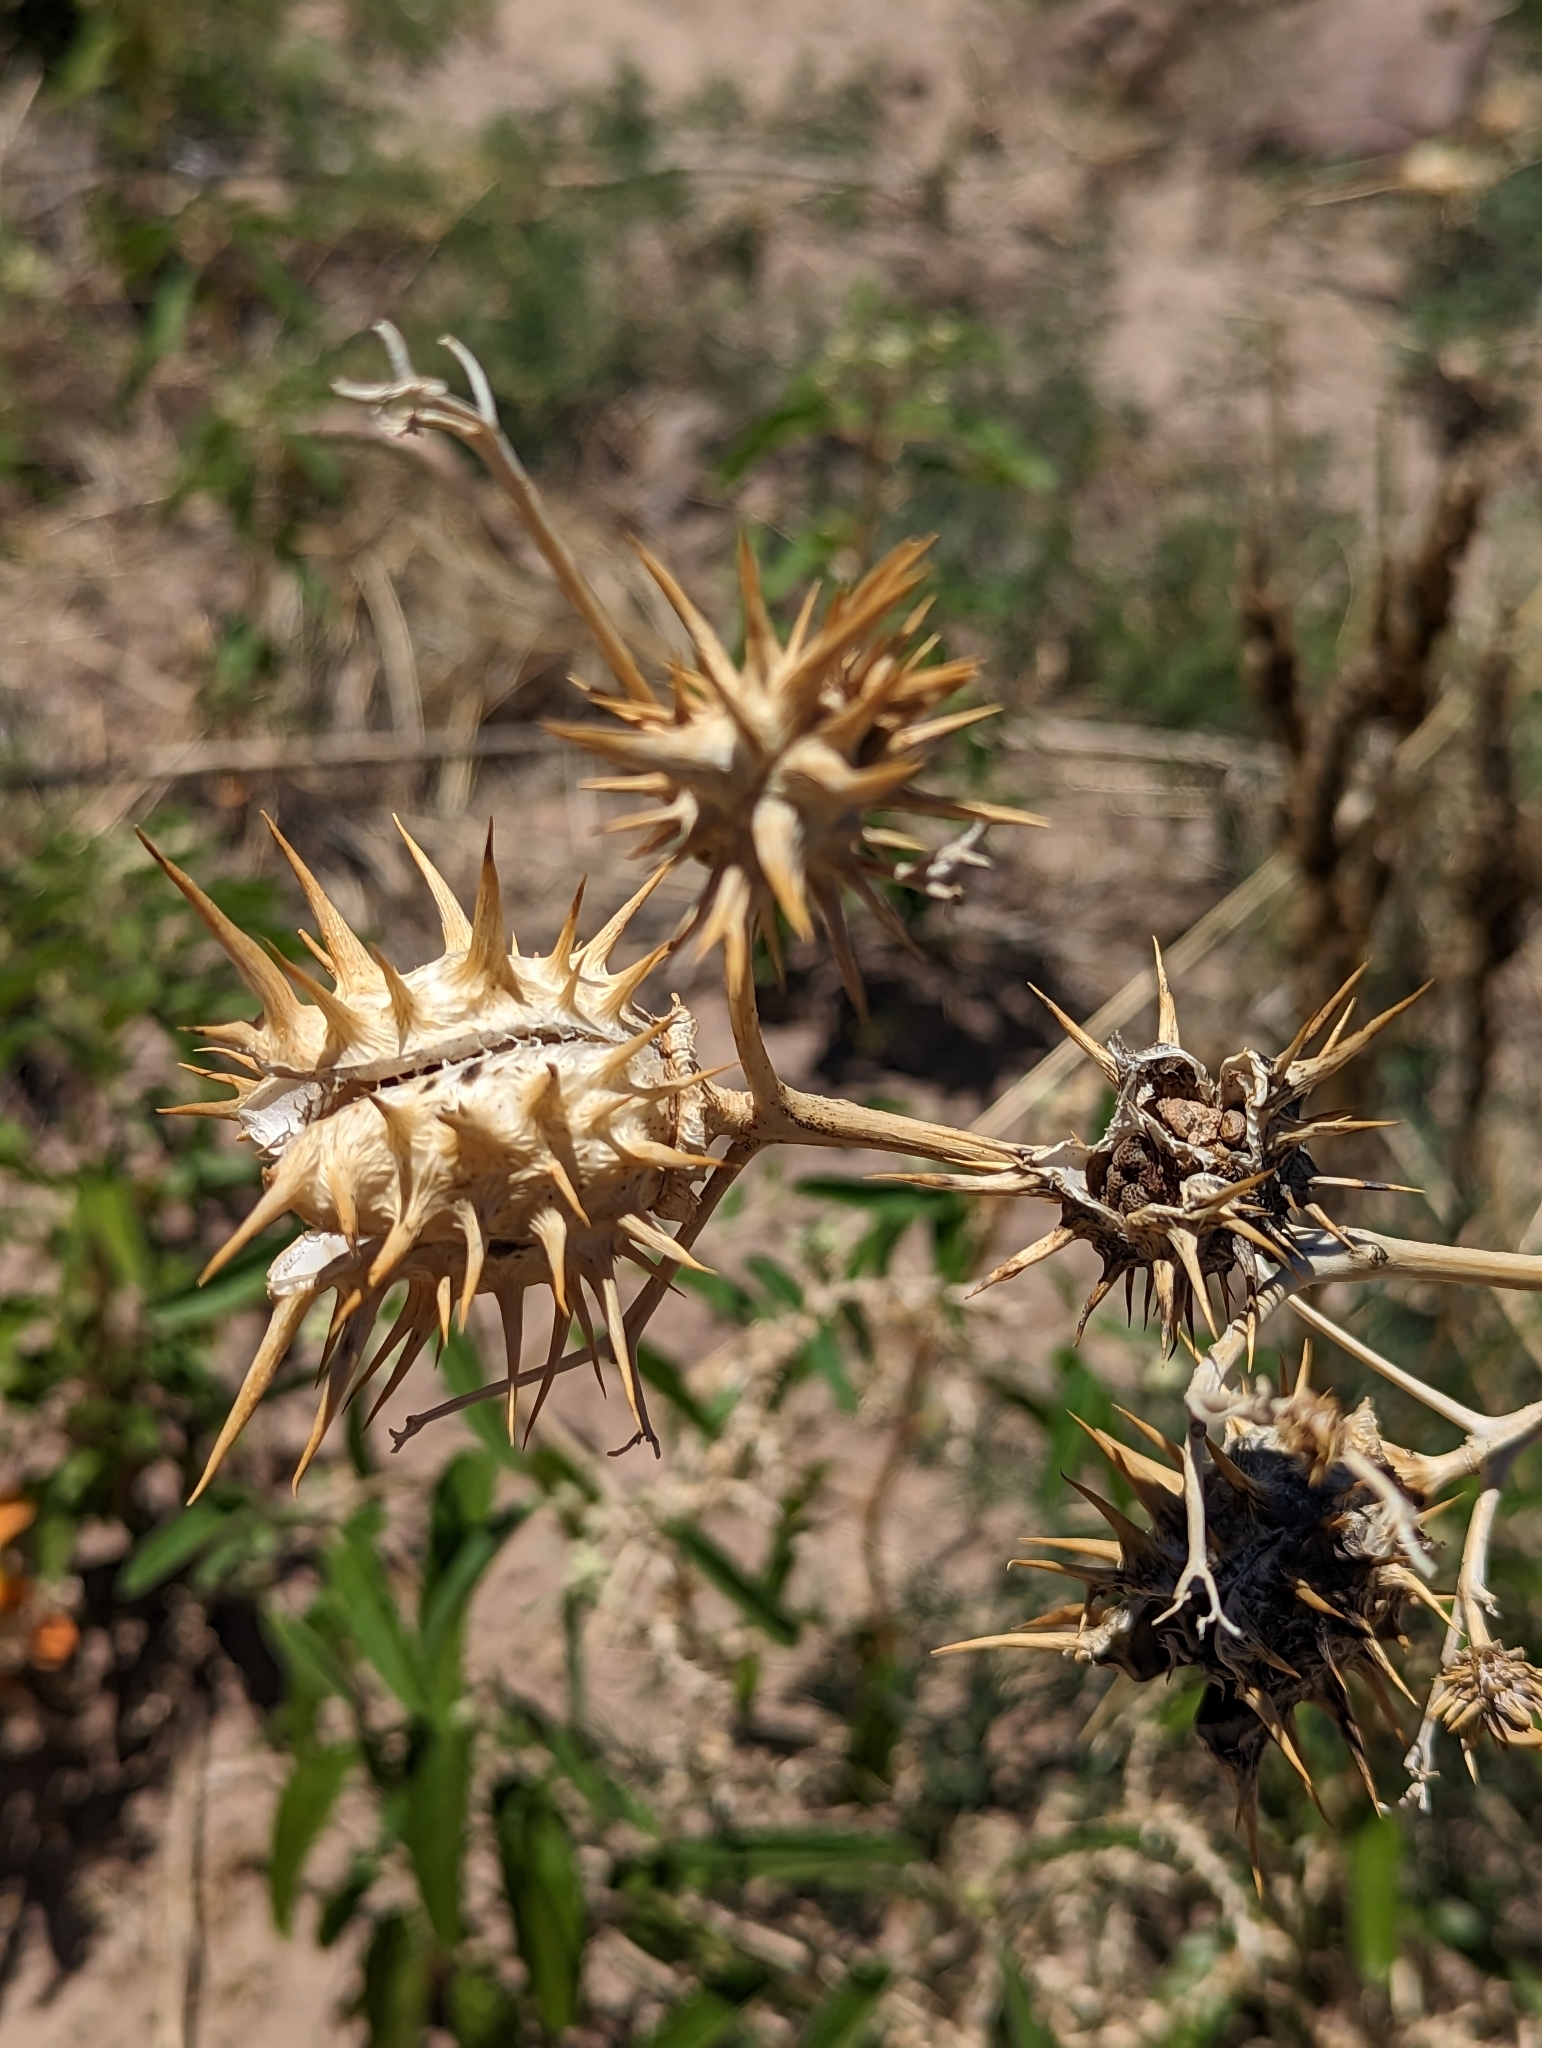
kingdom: Plantae
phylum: Tracheophyta
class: Magnoliopsida
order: Solanales
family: Solanaceae
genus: Datura
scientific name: Datura quercifolia
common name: Oak-leaf datura
